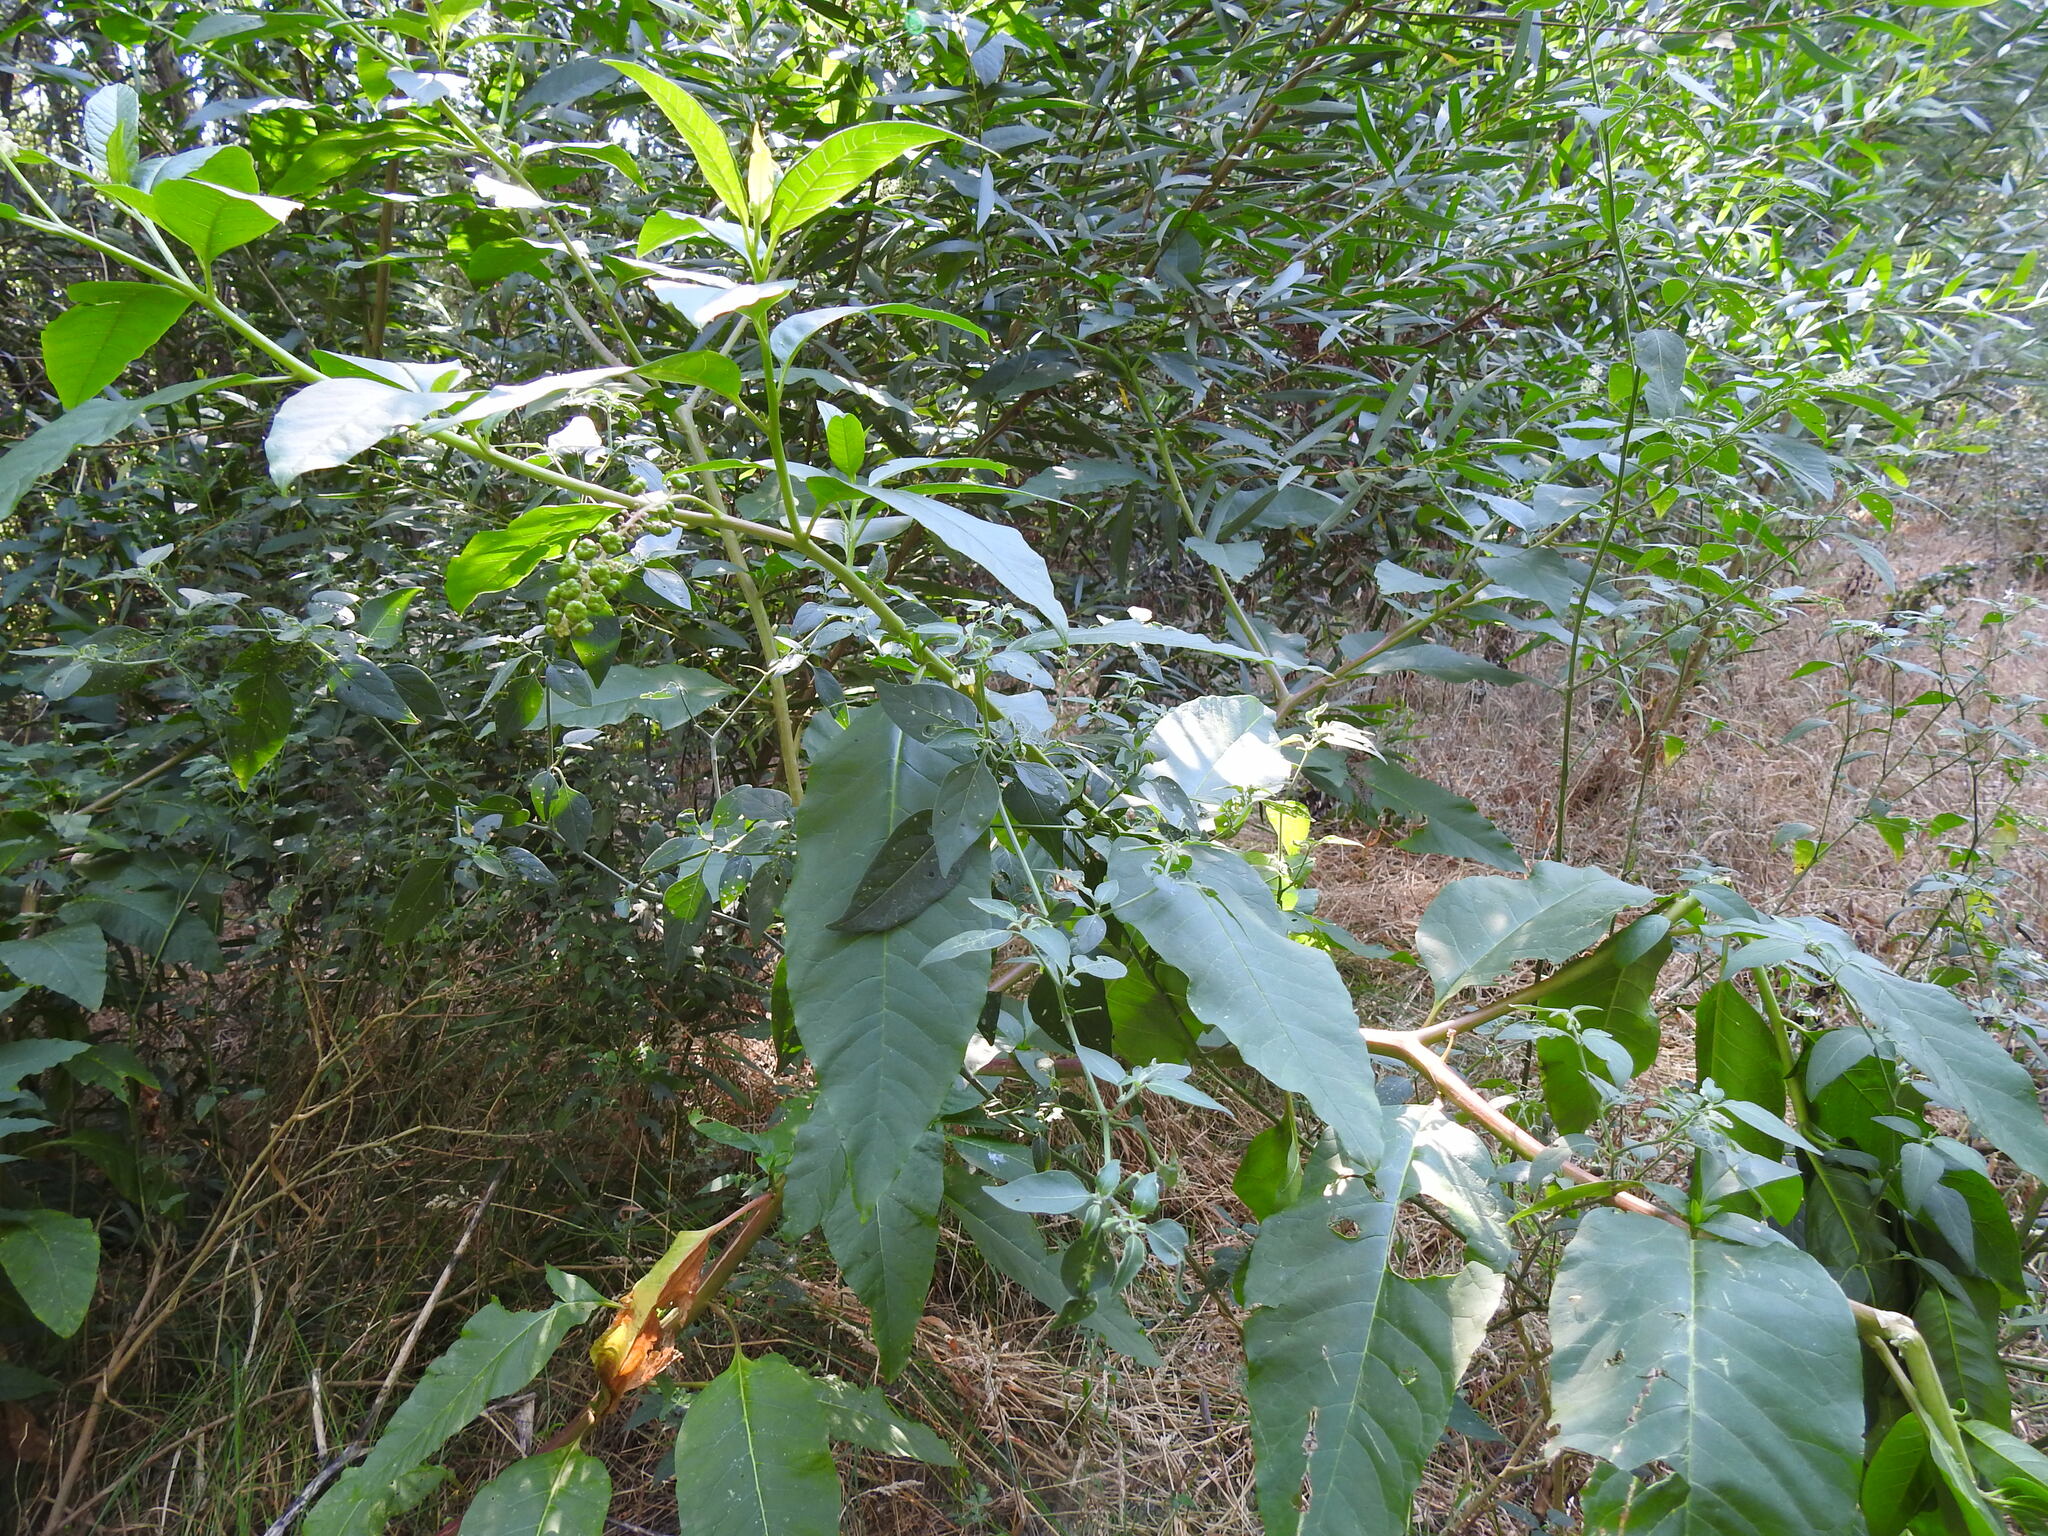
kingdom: Plantae
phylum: Tracheophyta
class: Magnoliopsida
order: Caryophyllales
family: Phytolaccaceae
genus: Phytolacca
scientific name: Phytolacca americana
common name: American pokeweed
